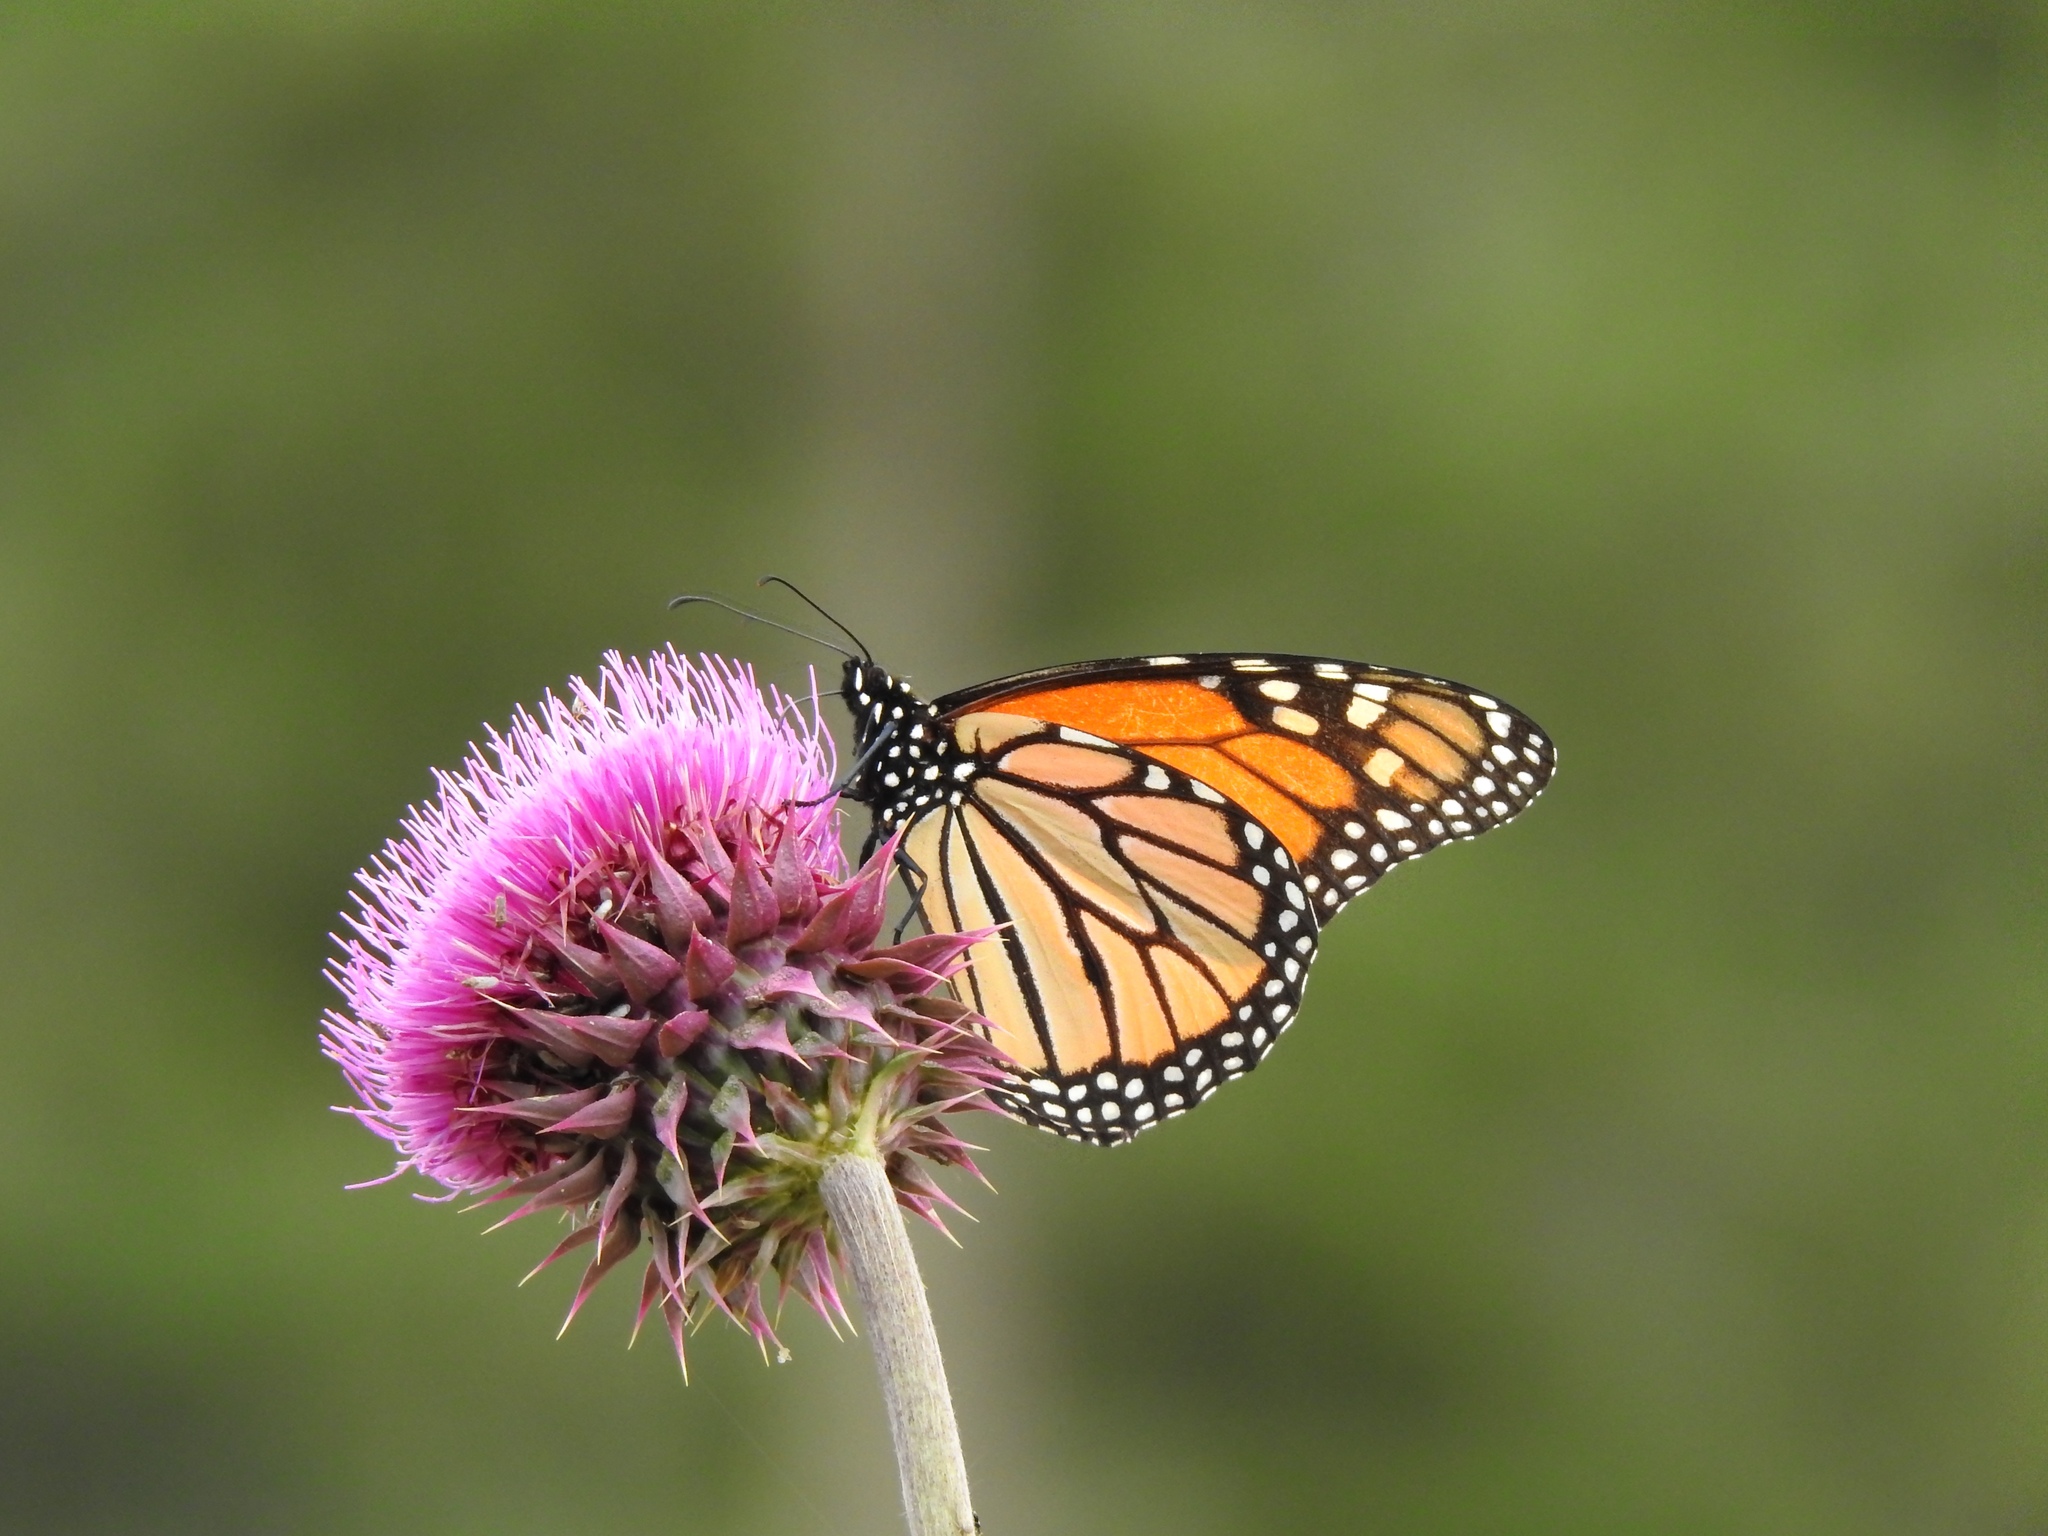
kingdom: Animalia
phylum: Arthropoda
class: Insecta
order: Lepidoptera
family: Nymphalidae
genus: Danaus
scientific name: Danaus plexippus
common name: Monarch
